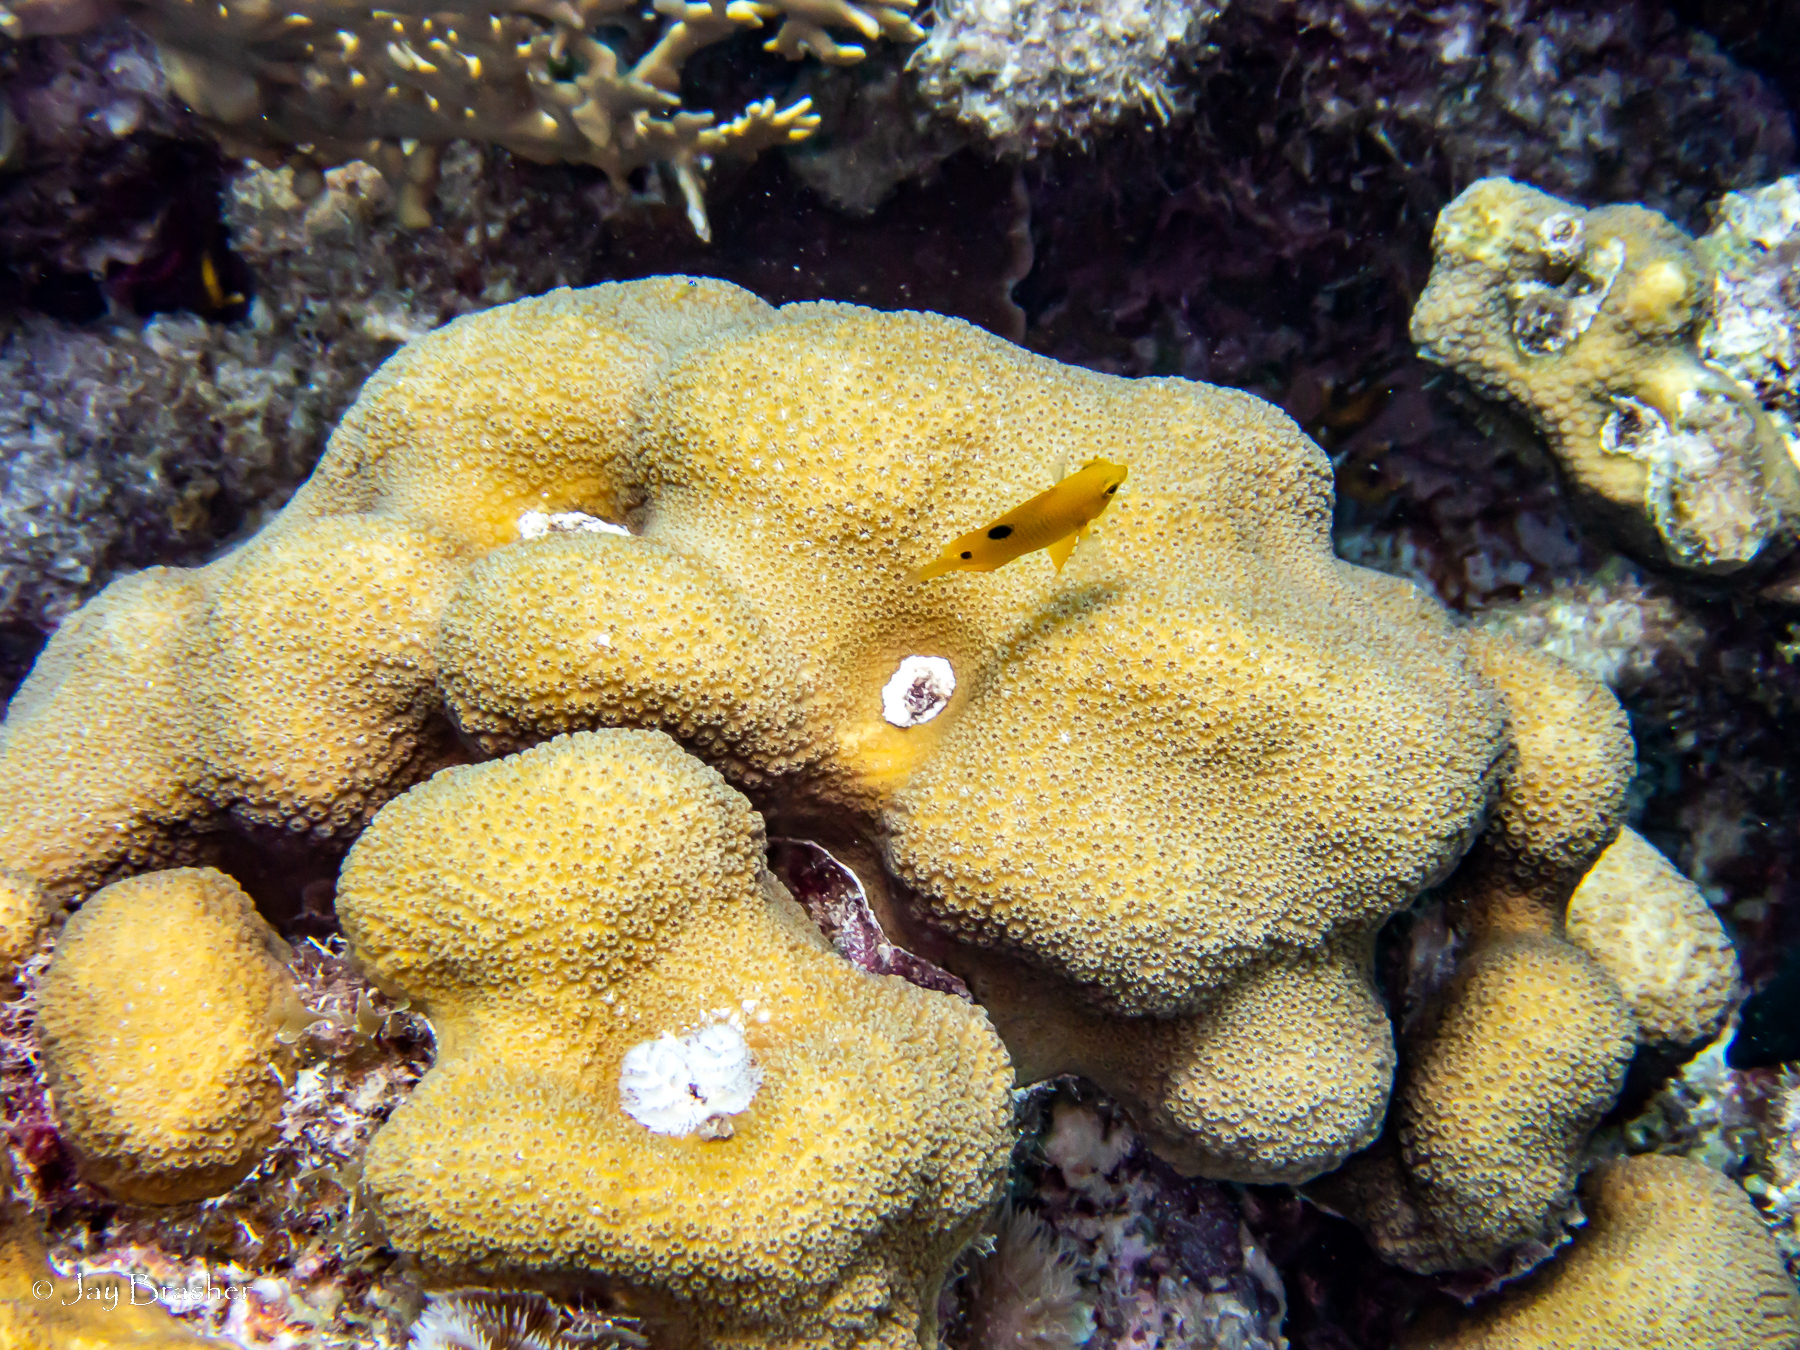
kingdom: Animalia
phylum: Cnidaria
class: Anthozoa
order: Scleractinia
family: Merulinidae
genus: Orbicella
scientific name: Orbicella annularis
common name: Boulder star coral
